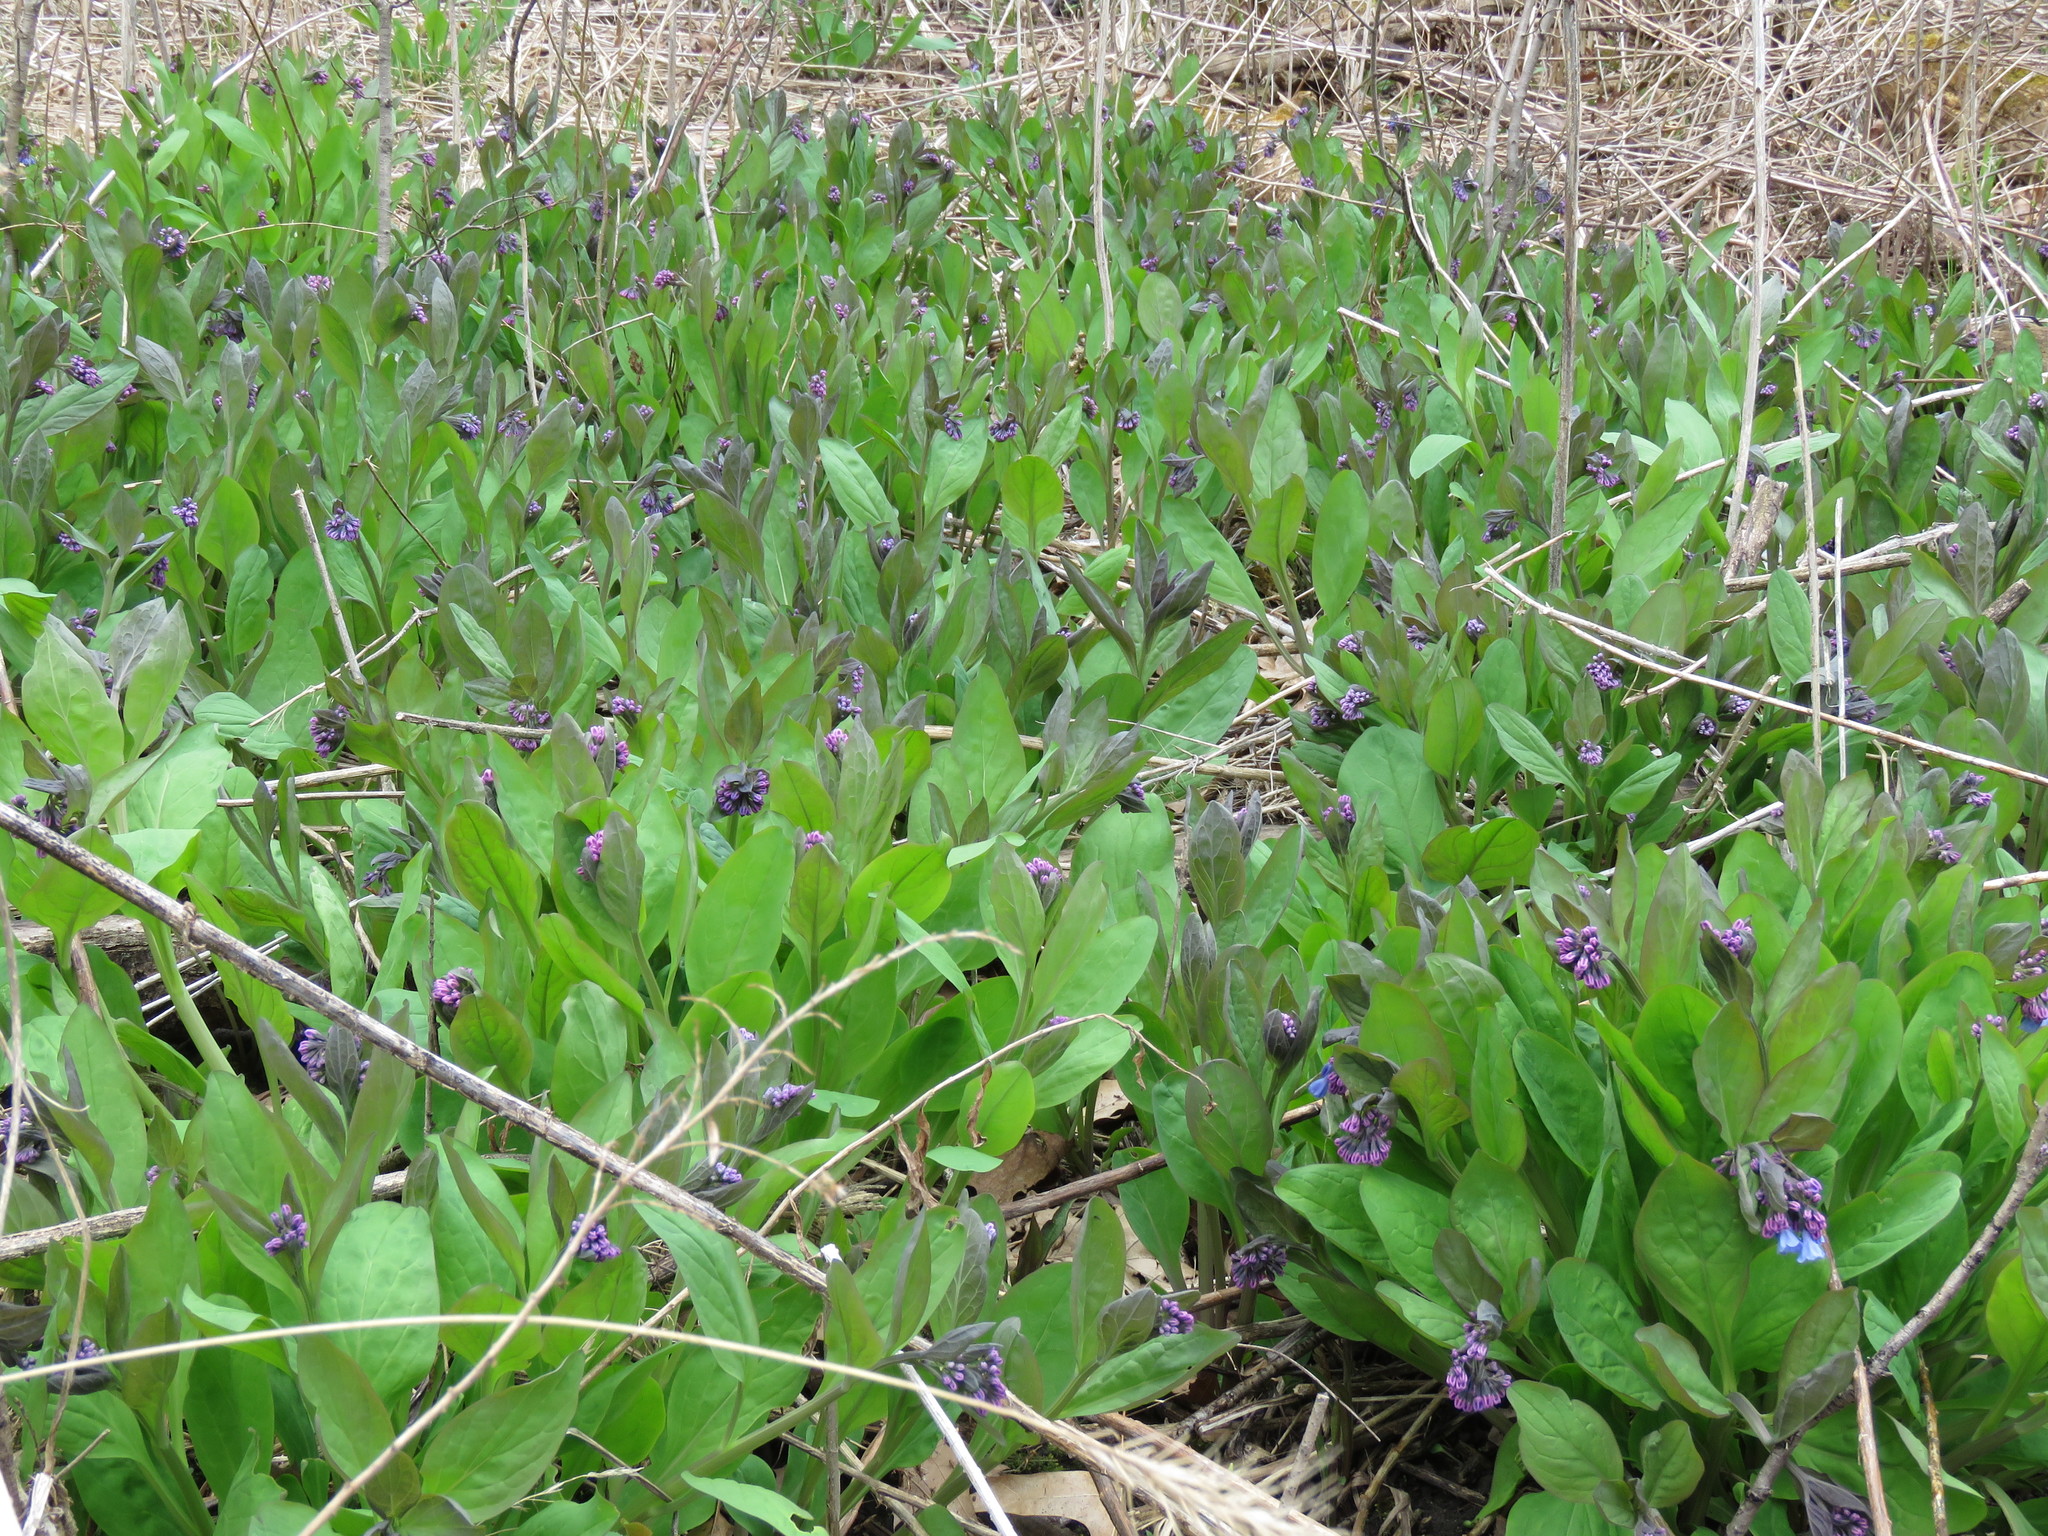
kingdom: Plantae
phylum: Tracheophyta
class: Magnoliopsida
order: Boraginales
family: Boraginaceae
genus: Mertensia
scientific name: Mertensia virginica
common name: Virginia bluebells
